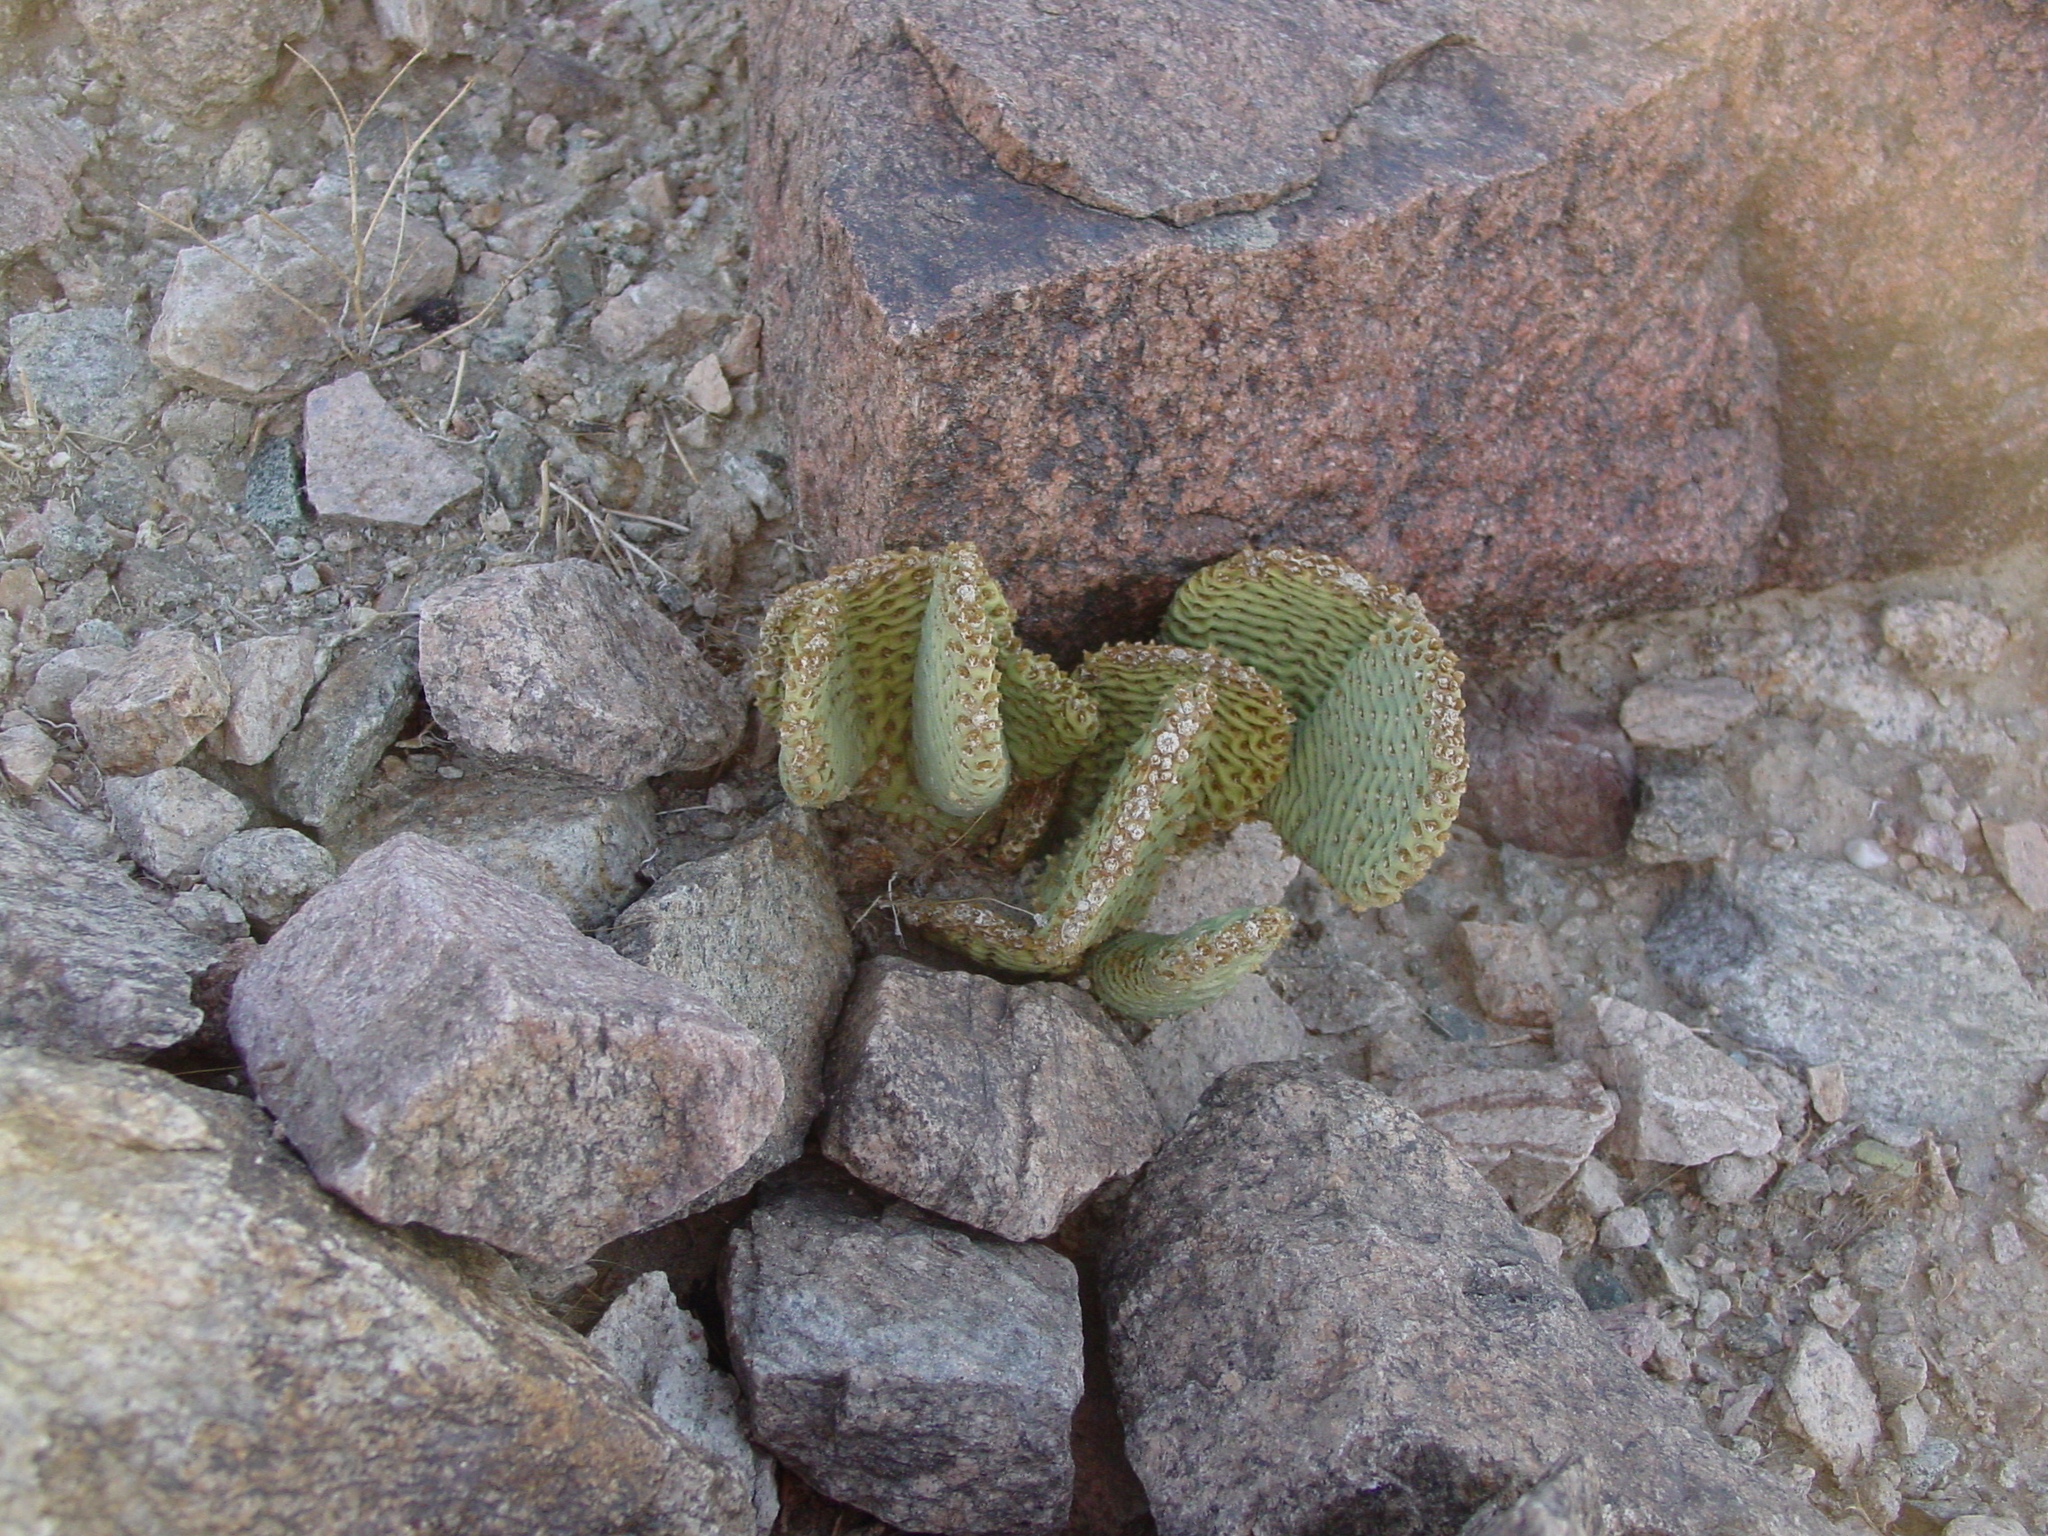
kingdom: Plantae
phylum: Tracheophyta
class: Magnoliopsida
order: Caryophyllales
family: Cactaceae
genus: Opuntia
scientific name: Opuntia basilaris
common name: Beavertail prickly-pear
